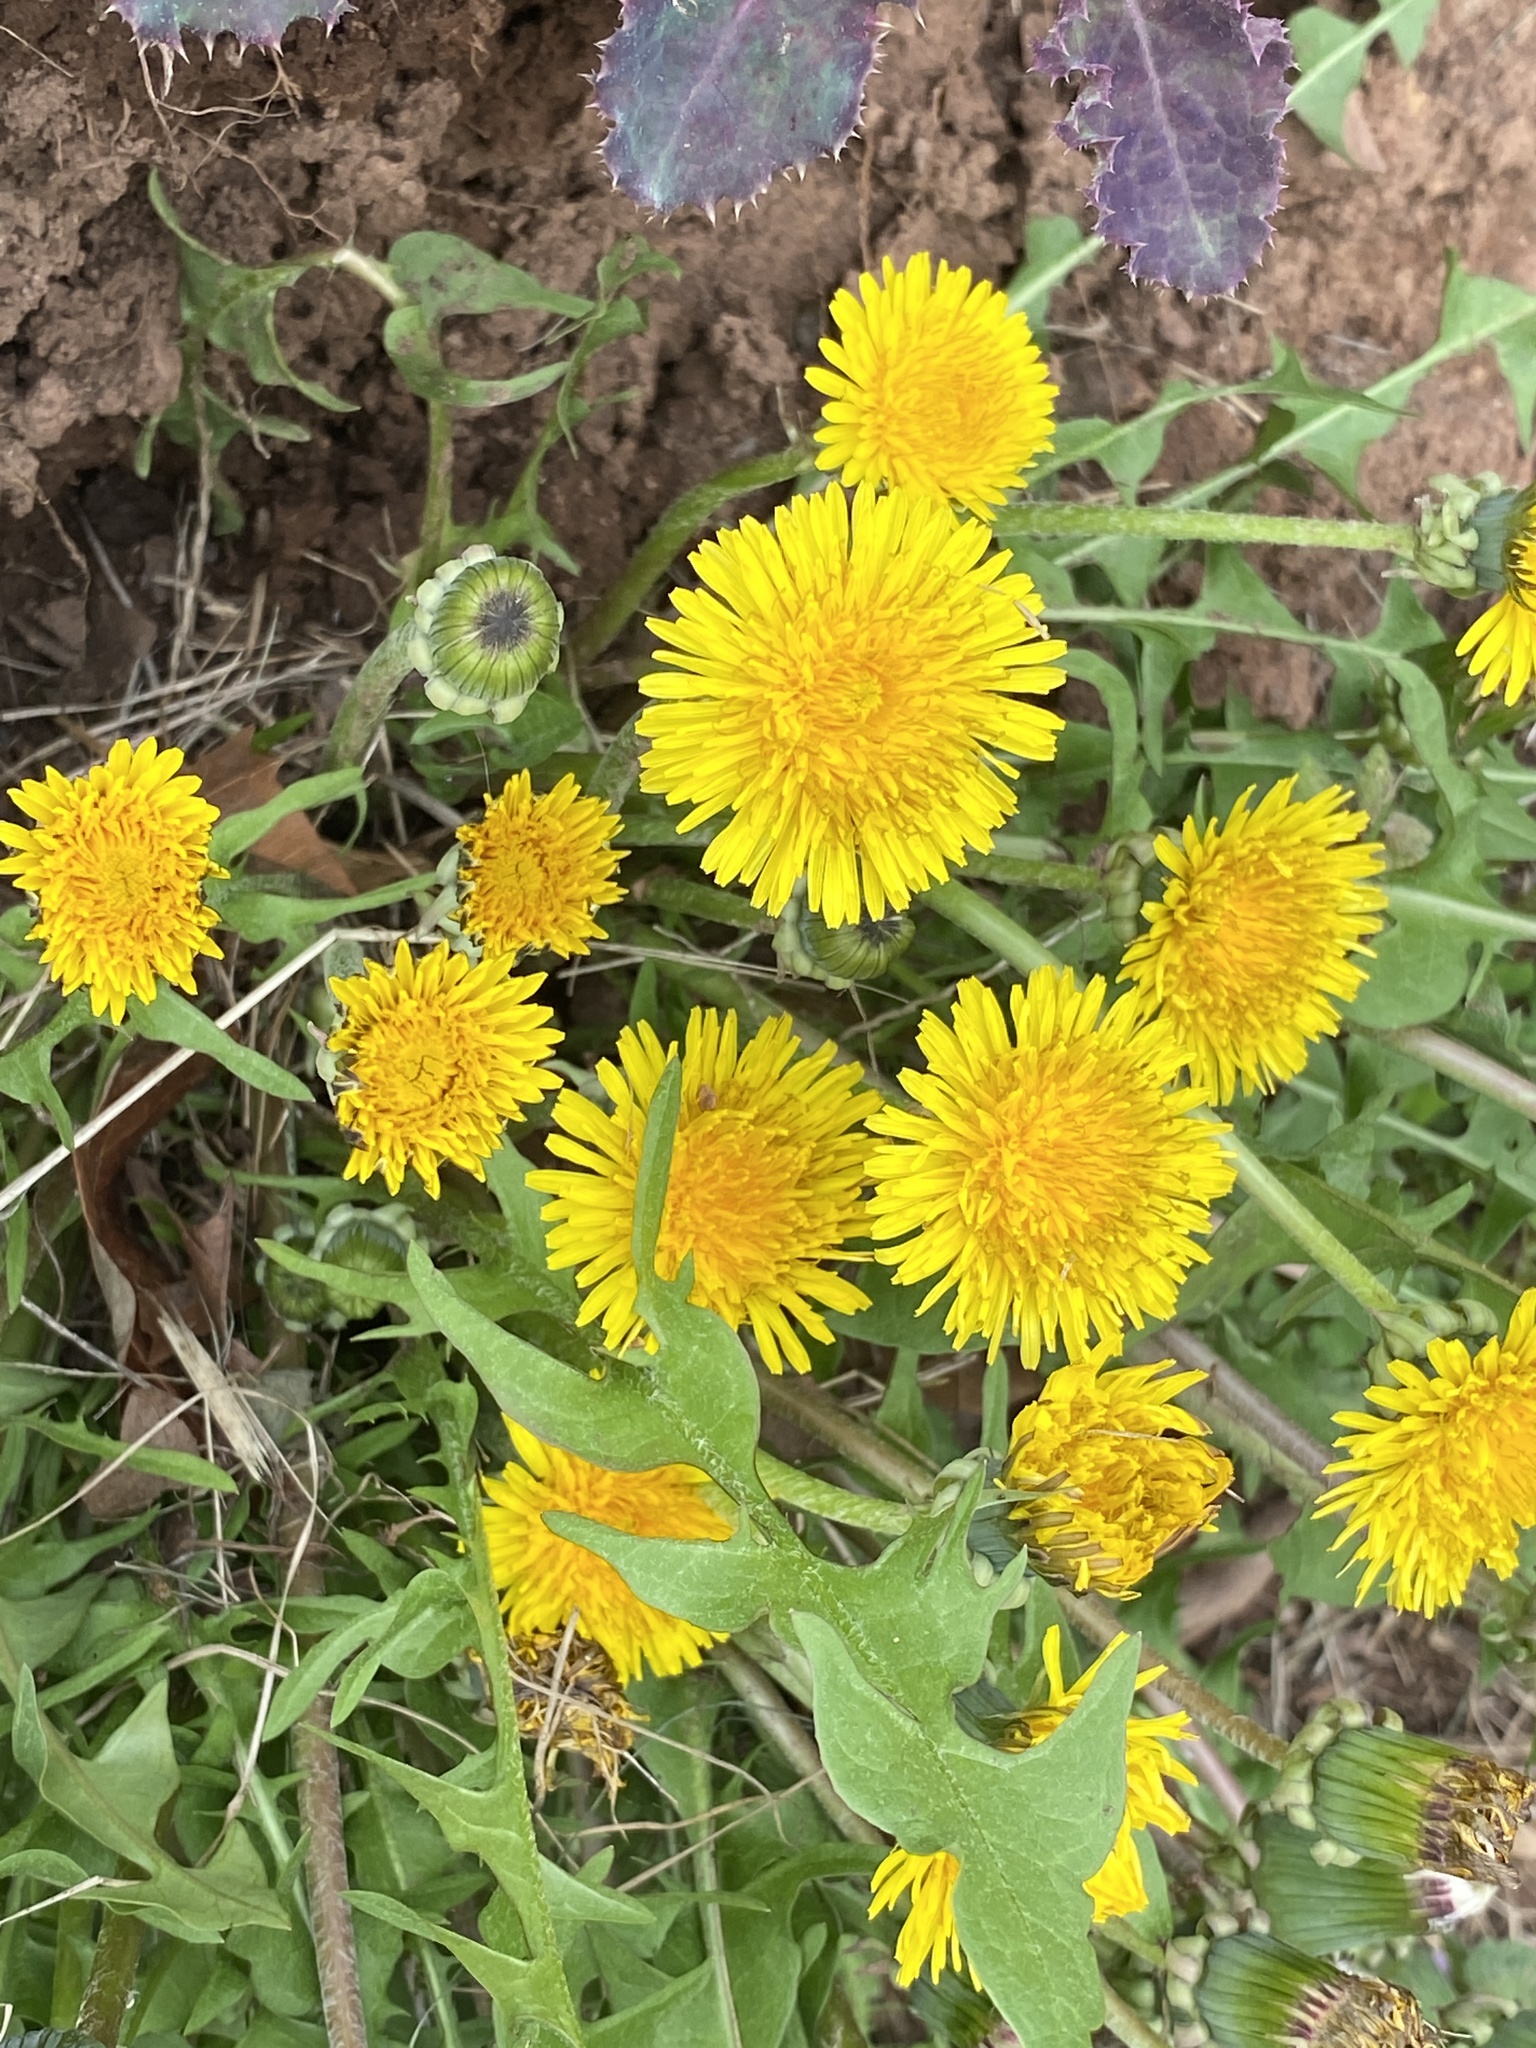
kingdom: Plantae
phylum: Tracheophyta
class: Magnoliopsida
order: Asterales
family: Asteraceae
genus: Taraxacum
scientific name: Taraxacum officinale
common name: Common dandelion
